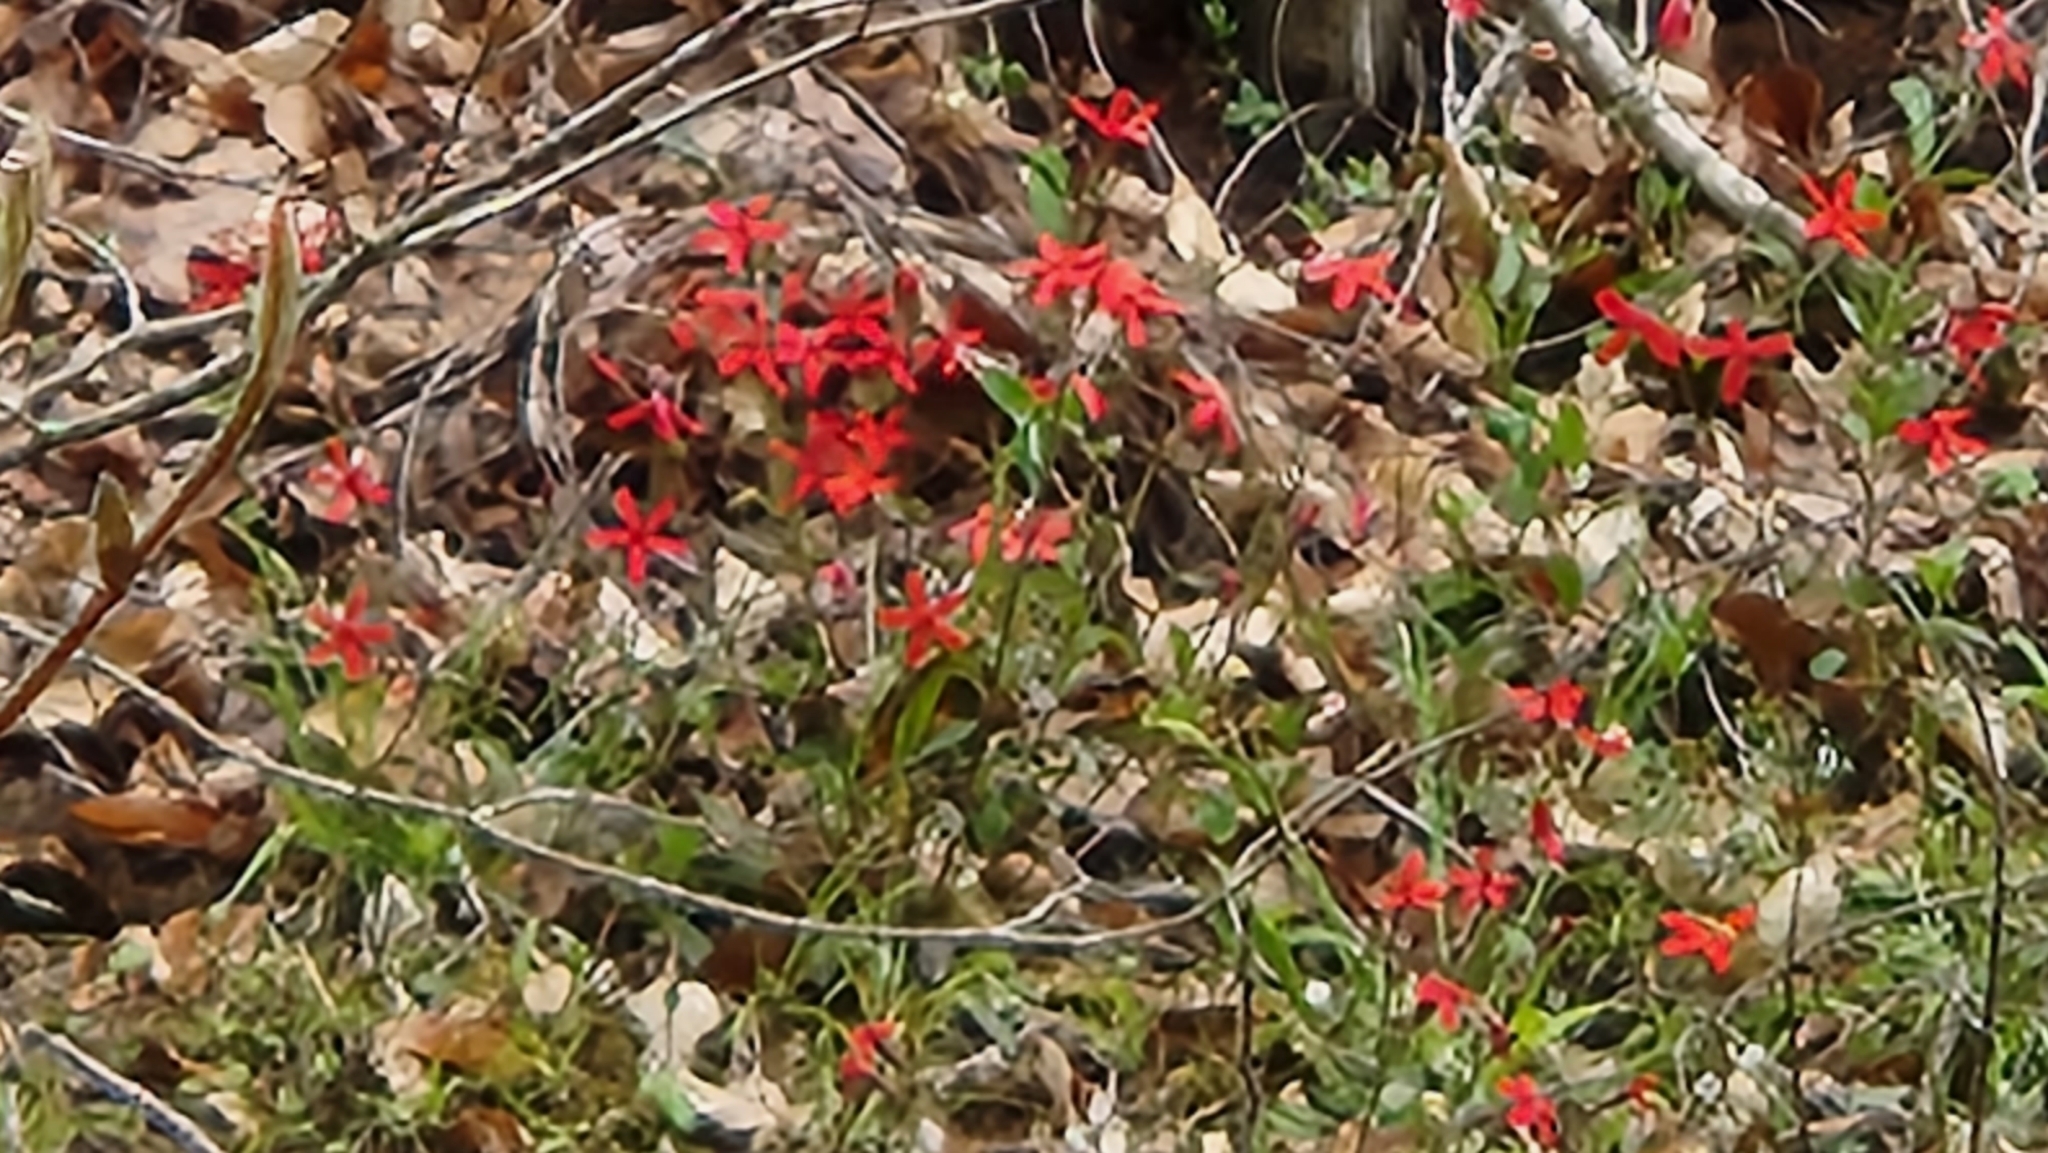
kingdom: Plantae
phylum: Tracheophyta
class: Magnoliopsida
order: Caryophyllales
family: Caryophyllaceae
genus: Silene
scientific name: Silene virginica
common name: Fire-pink
